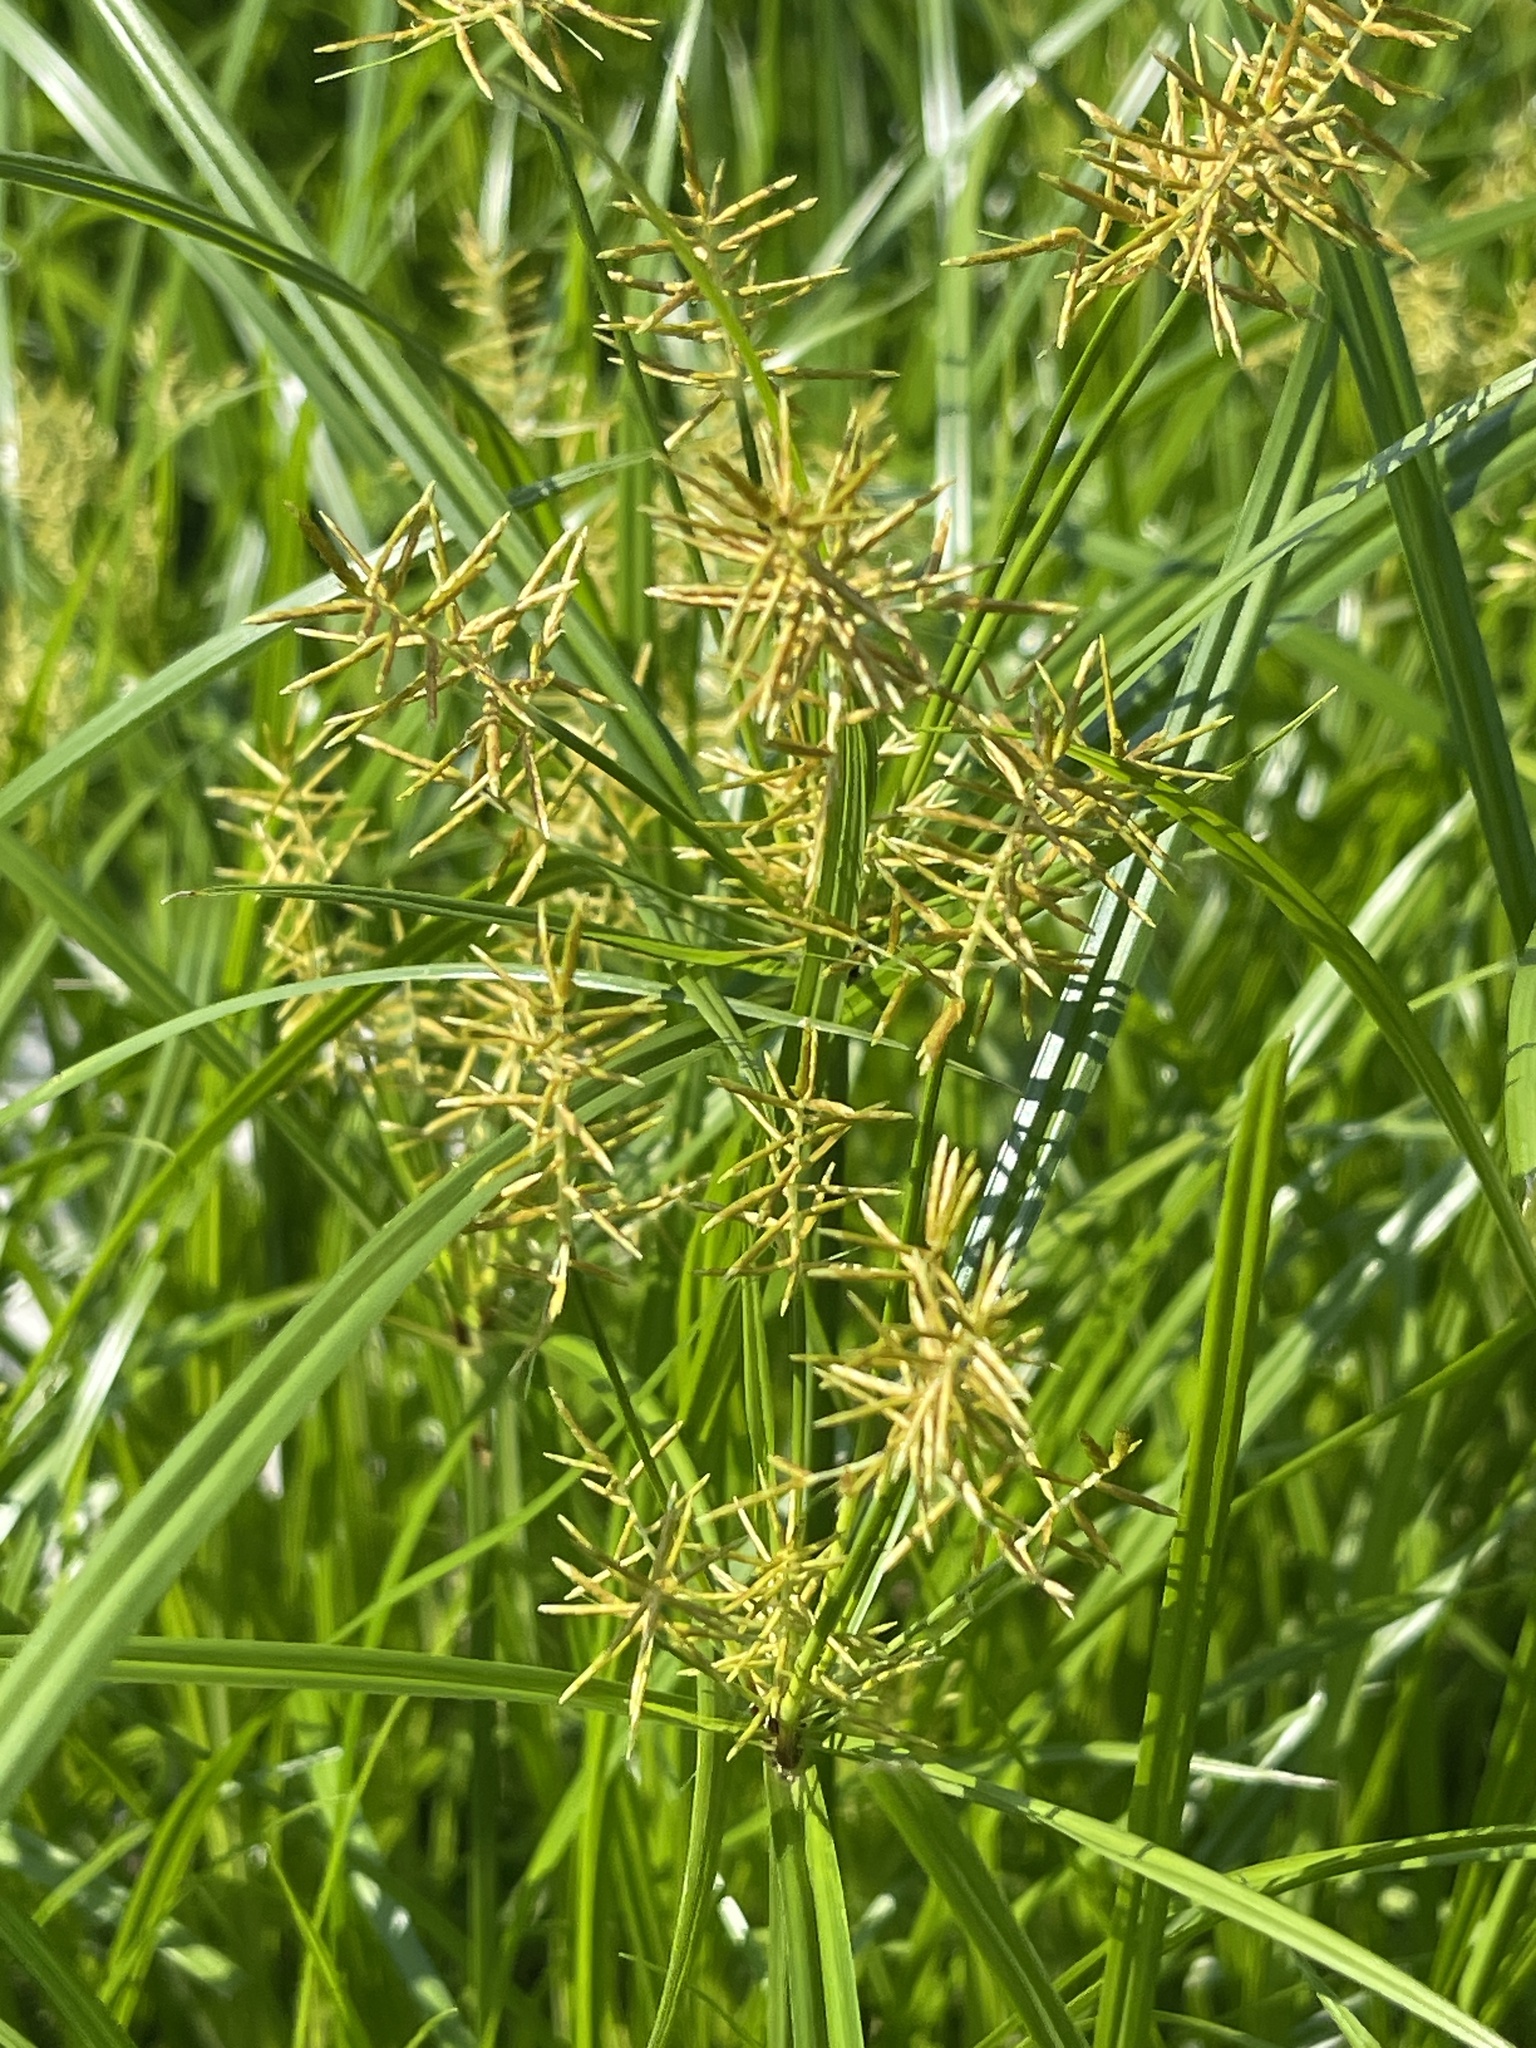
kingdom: Plantae
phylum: Tracheophyta
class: Liliopsida
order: Poales
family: Cyperaceae
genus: Cyperus
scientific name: Cyperus esculentus
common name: Yellow nutsedge
